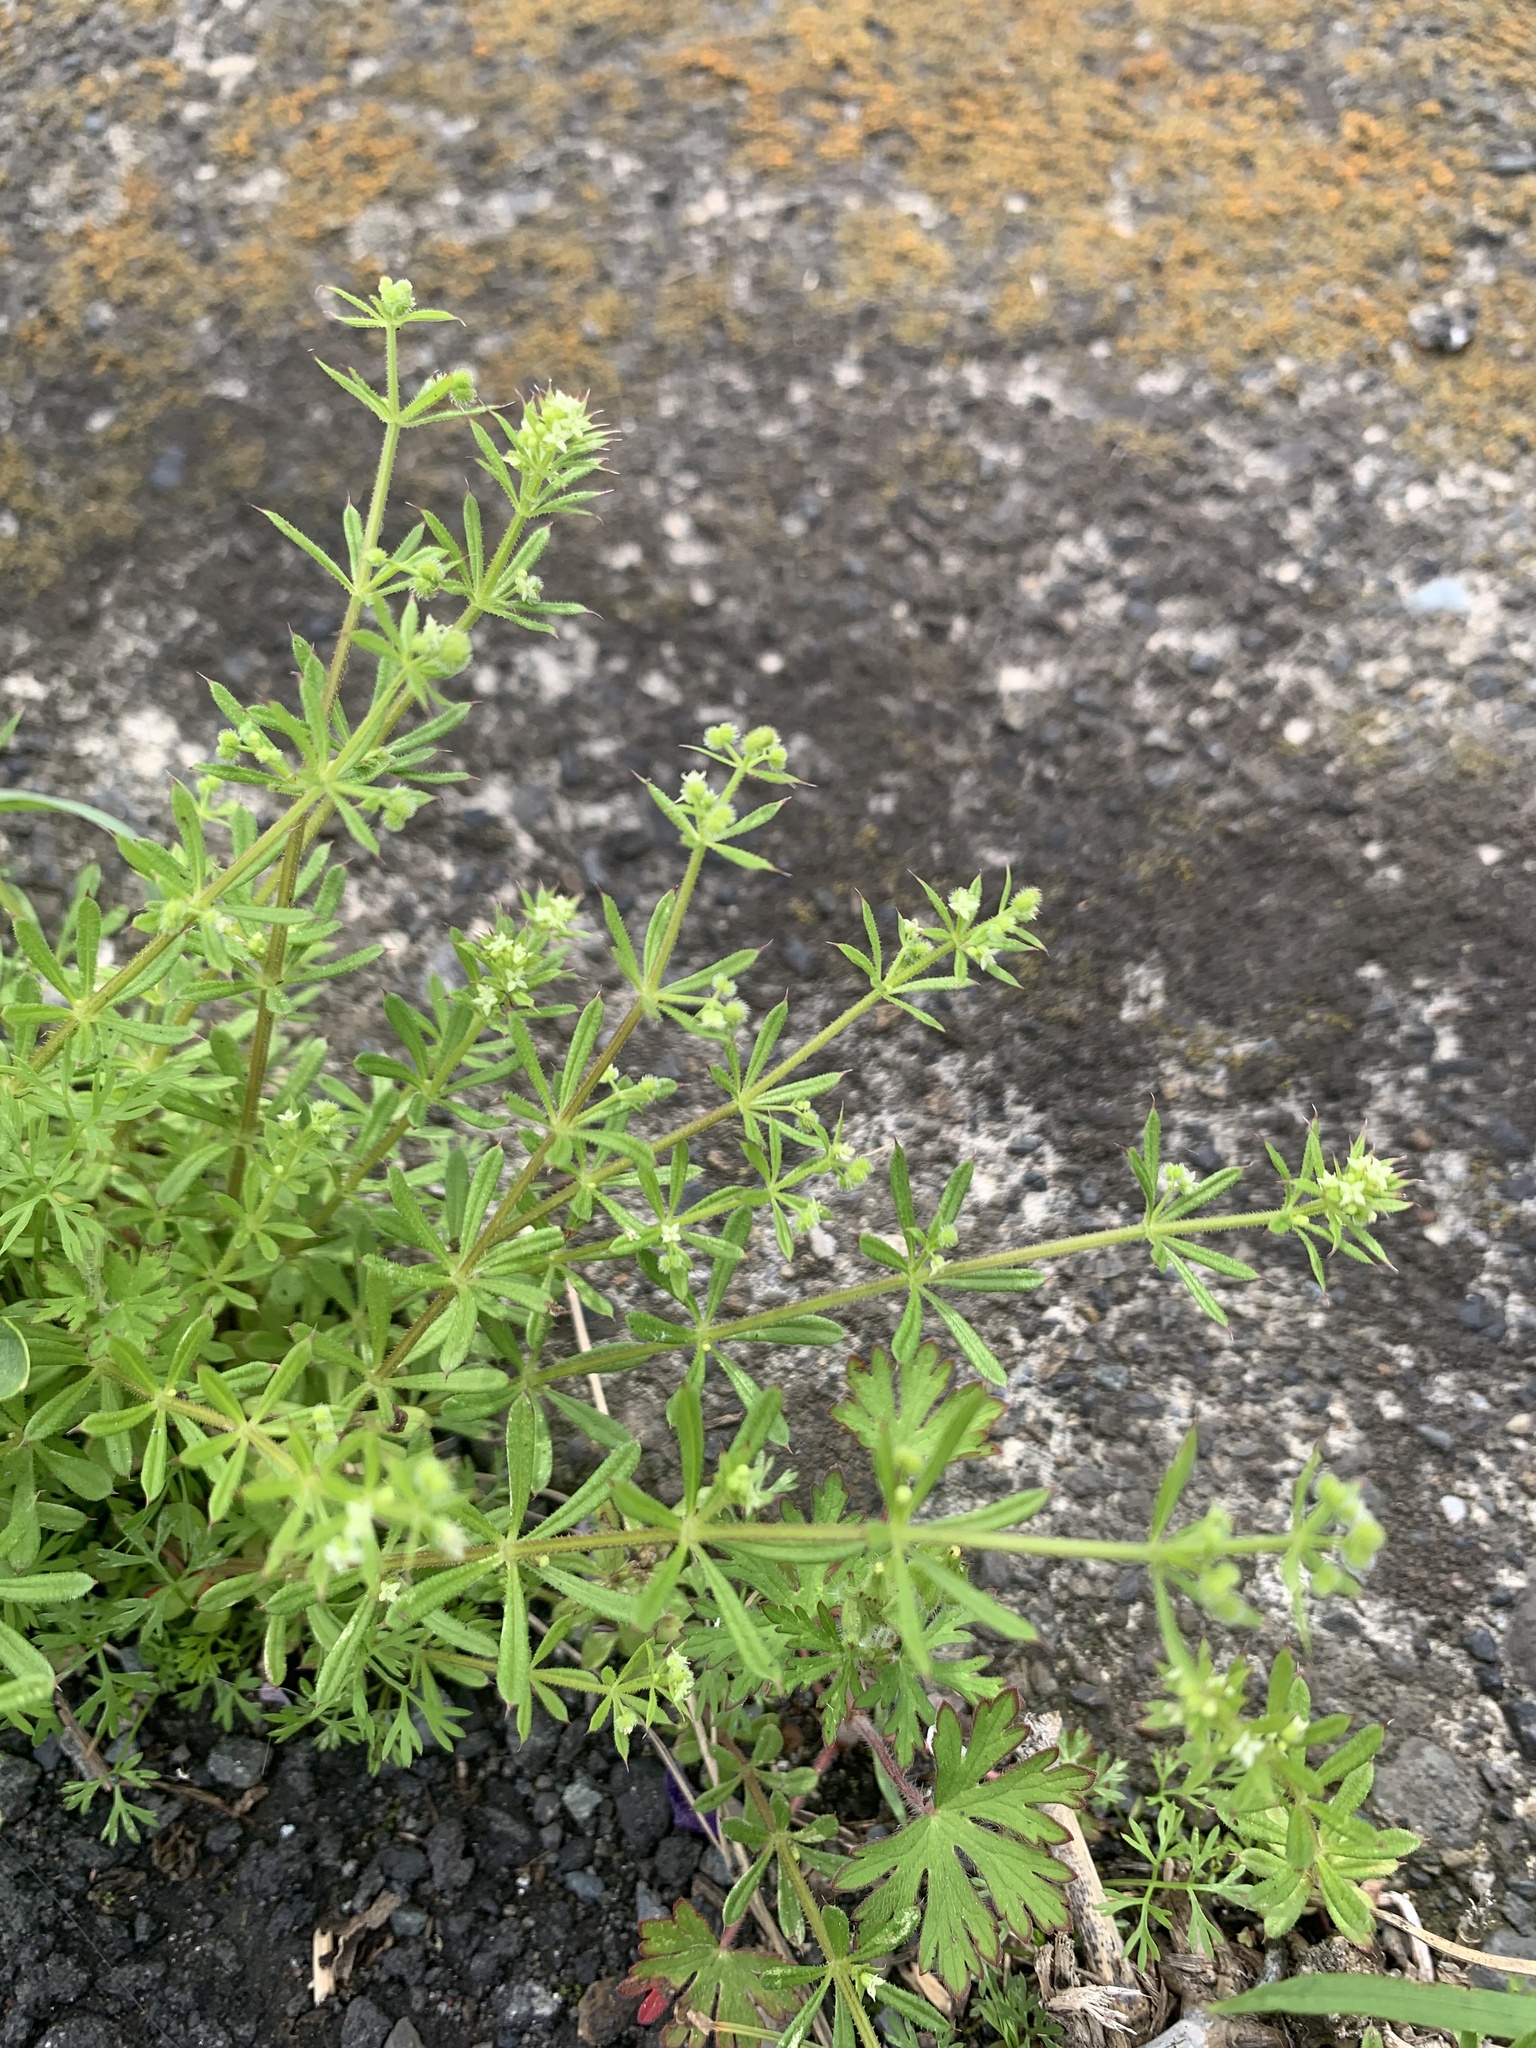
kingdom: Plantae
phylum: Tracheophyta
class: Magnoliopsida
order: Gentianales
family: Rubiaceae
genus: Galium
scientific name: Galium
